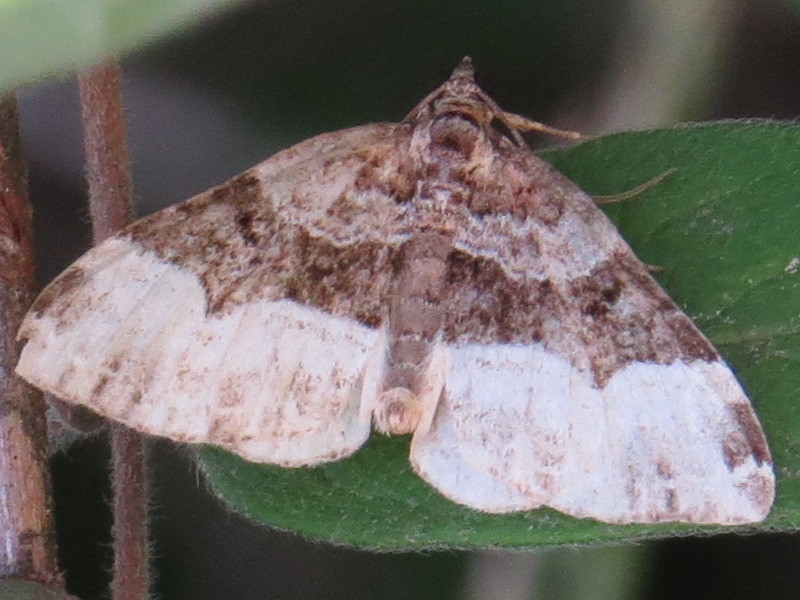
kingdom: Animalia
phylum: Arthropoda
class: Insecta
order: Lepidoptera
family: Geometridae
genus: Euphyia
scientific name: Euphyia intermediata
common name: Sharp-angled carpet
